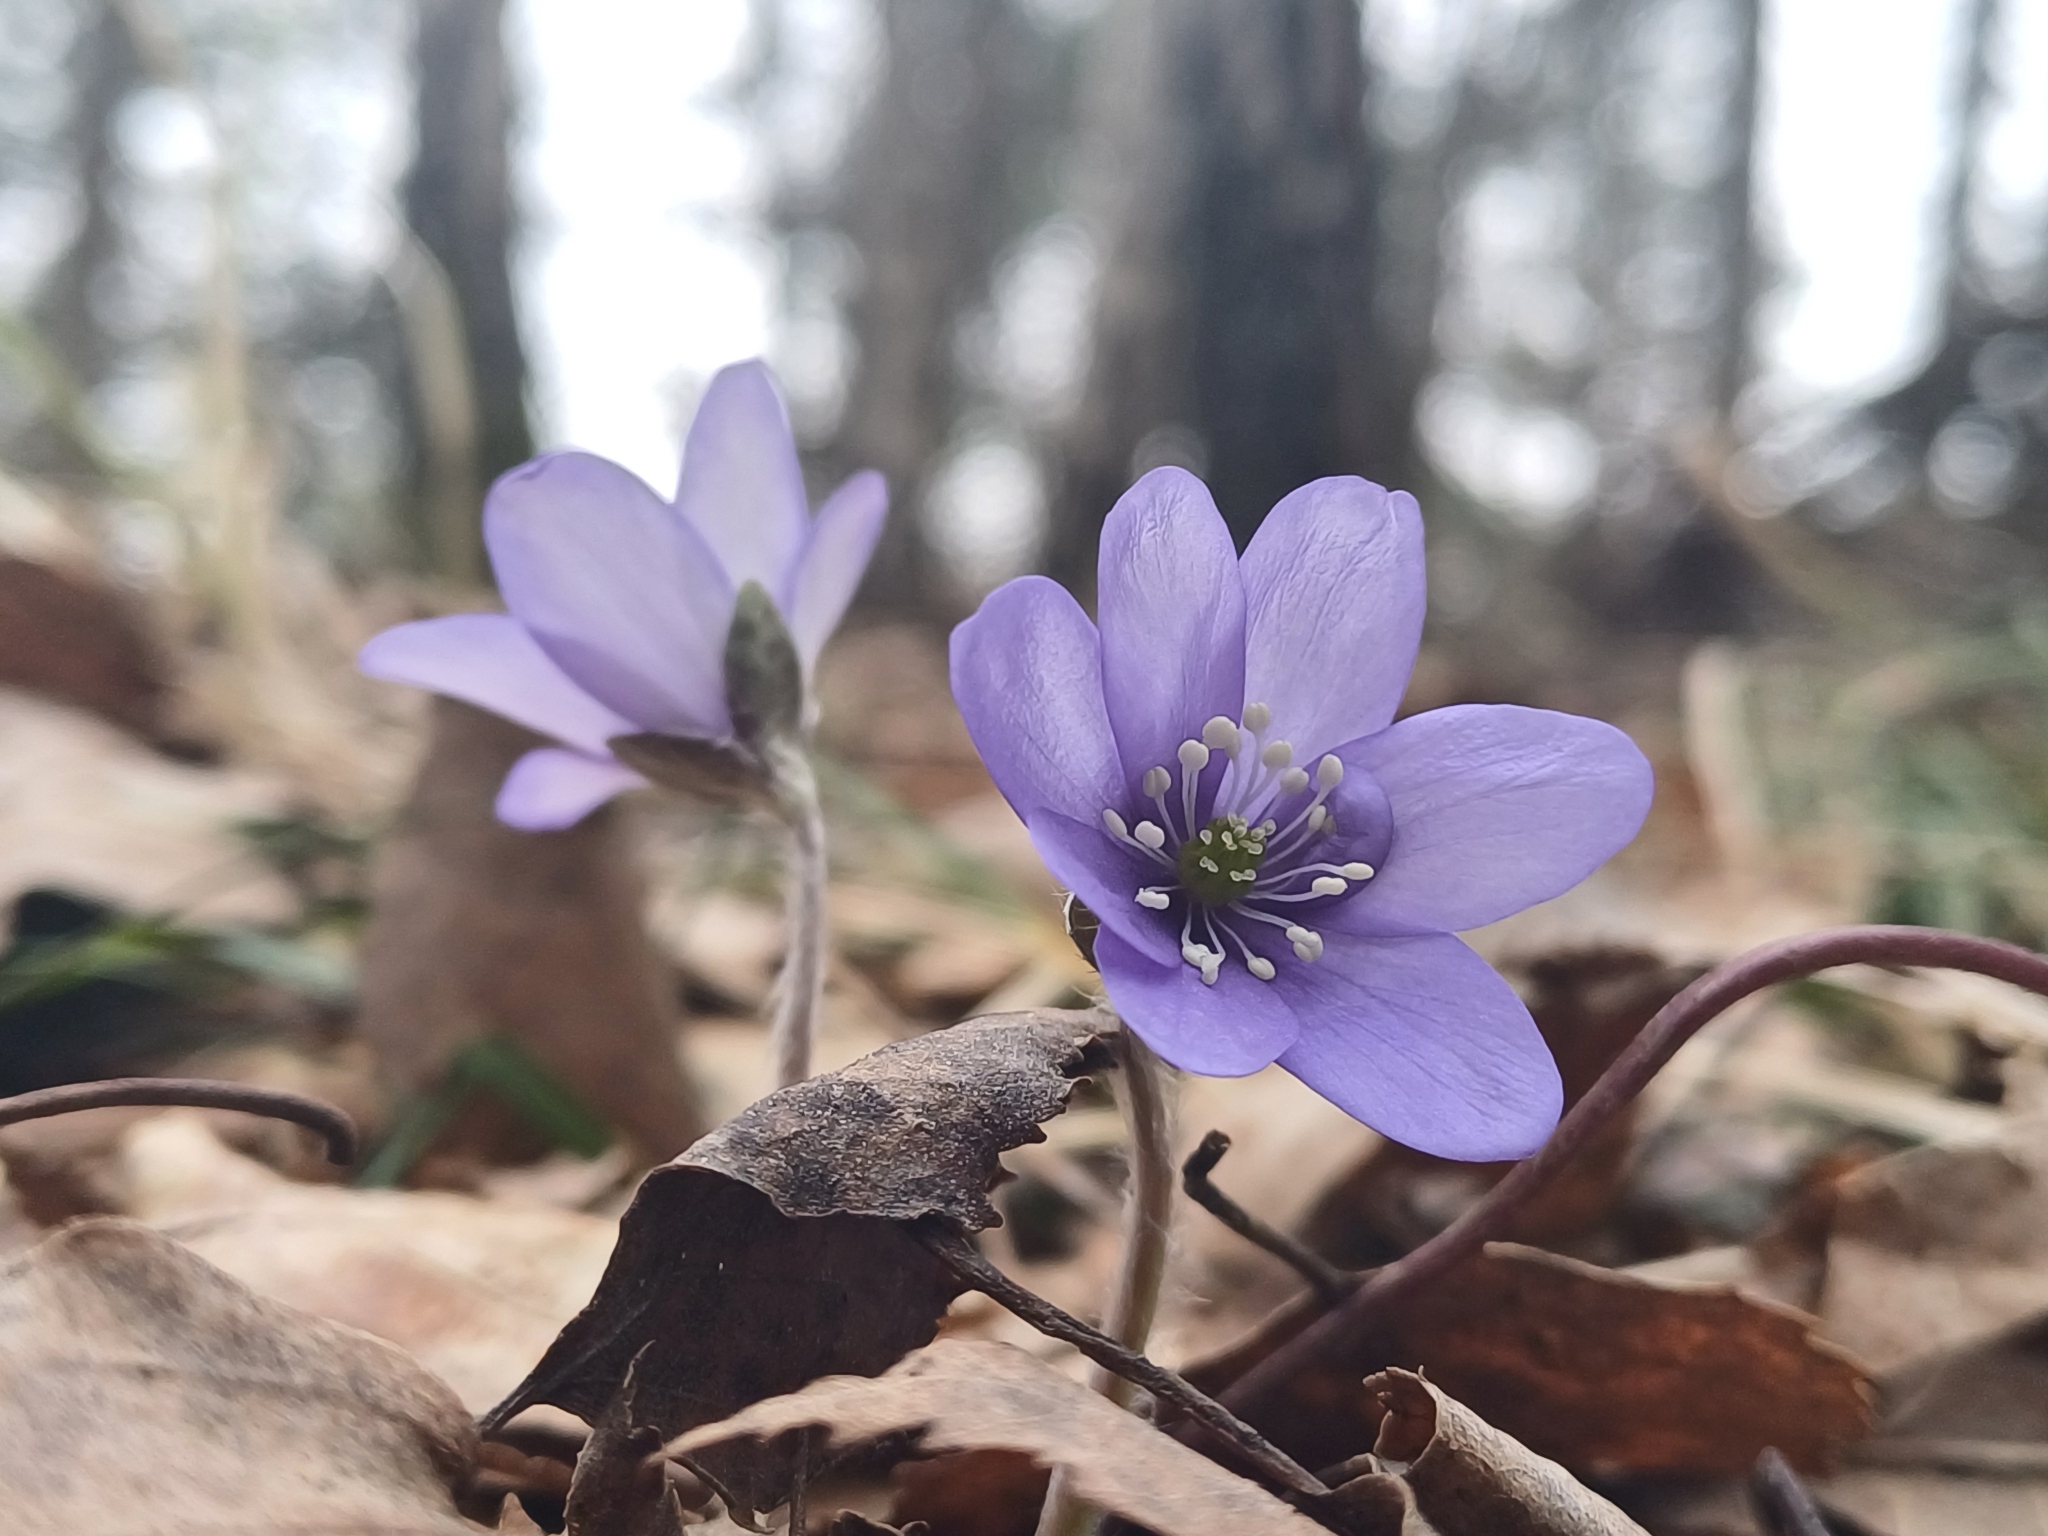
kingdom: Plantae
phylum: Tracheophyta
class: Magnoliopsida
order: Ranunculales
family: Ranunculaceae
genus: Hepatica
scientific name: Hepatica nobilis
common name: Liverleaf
